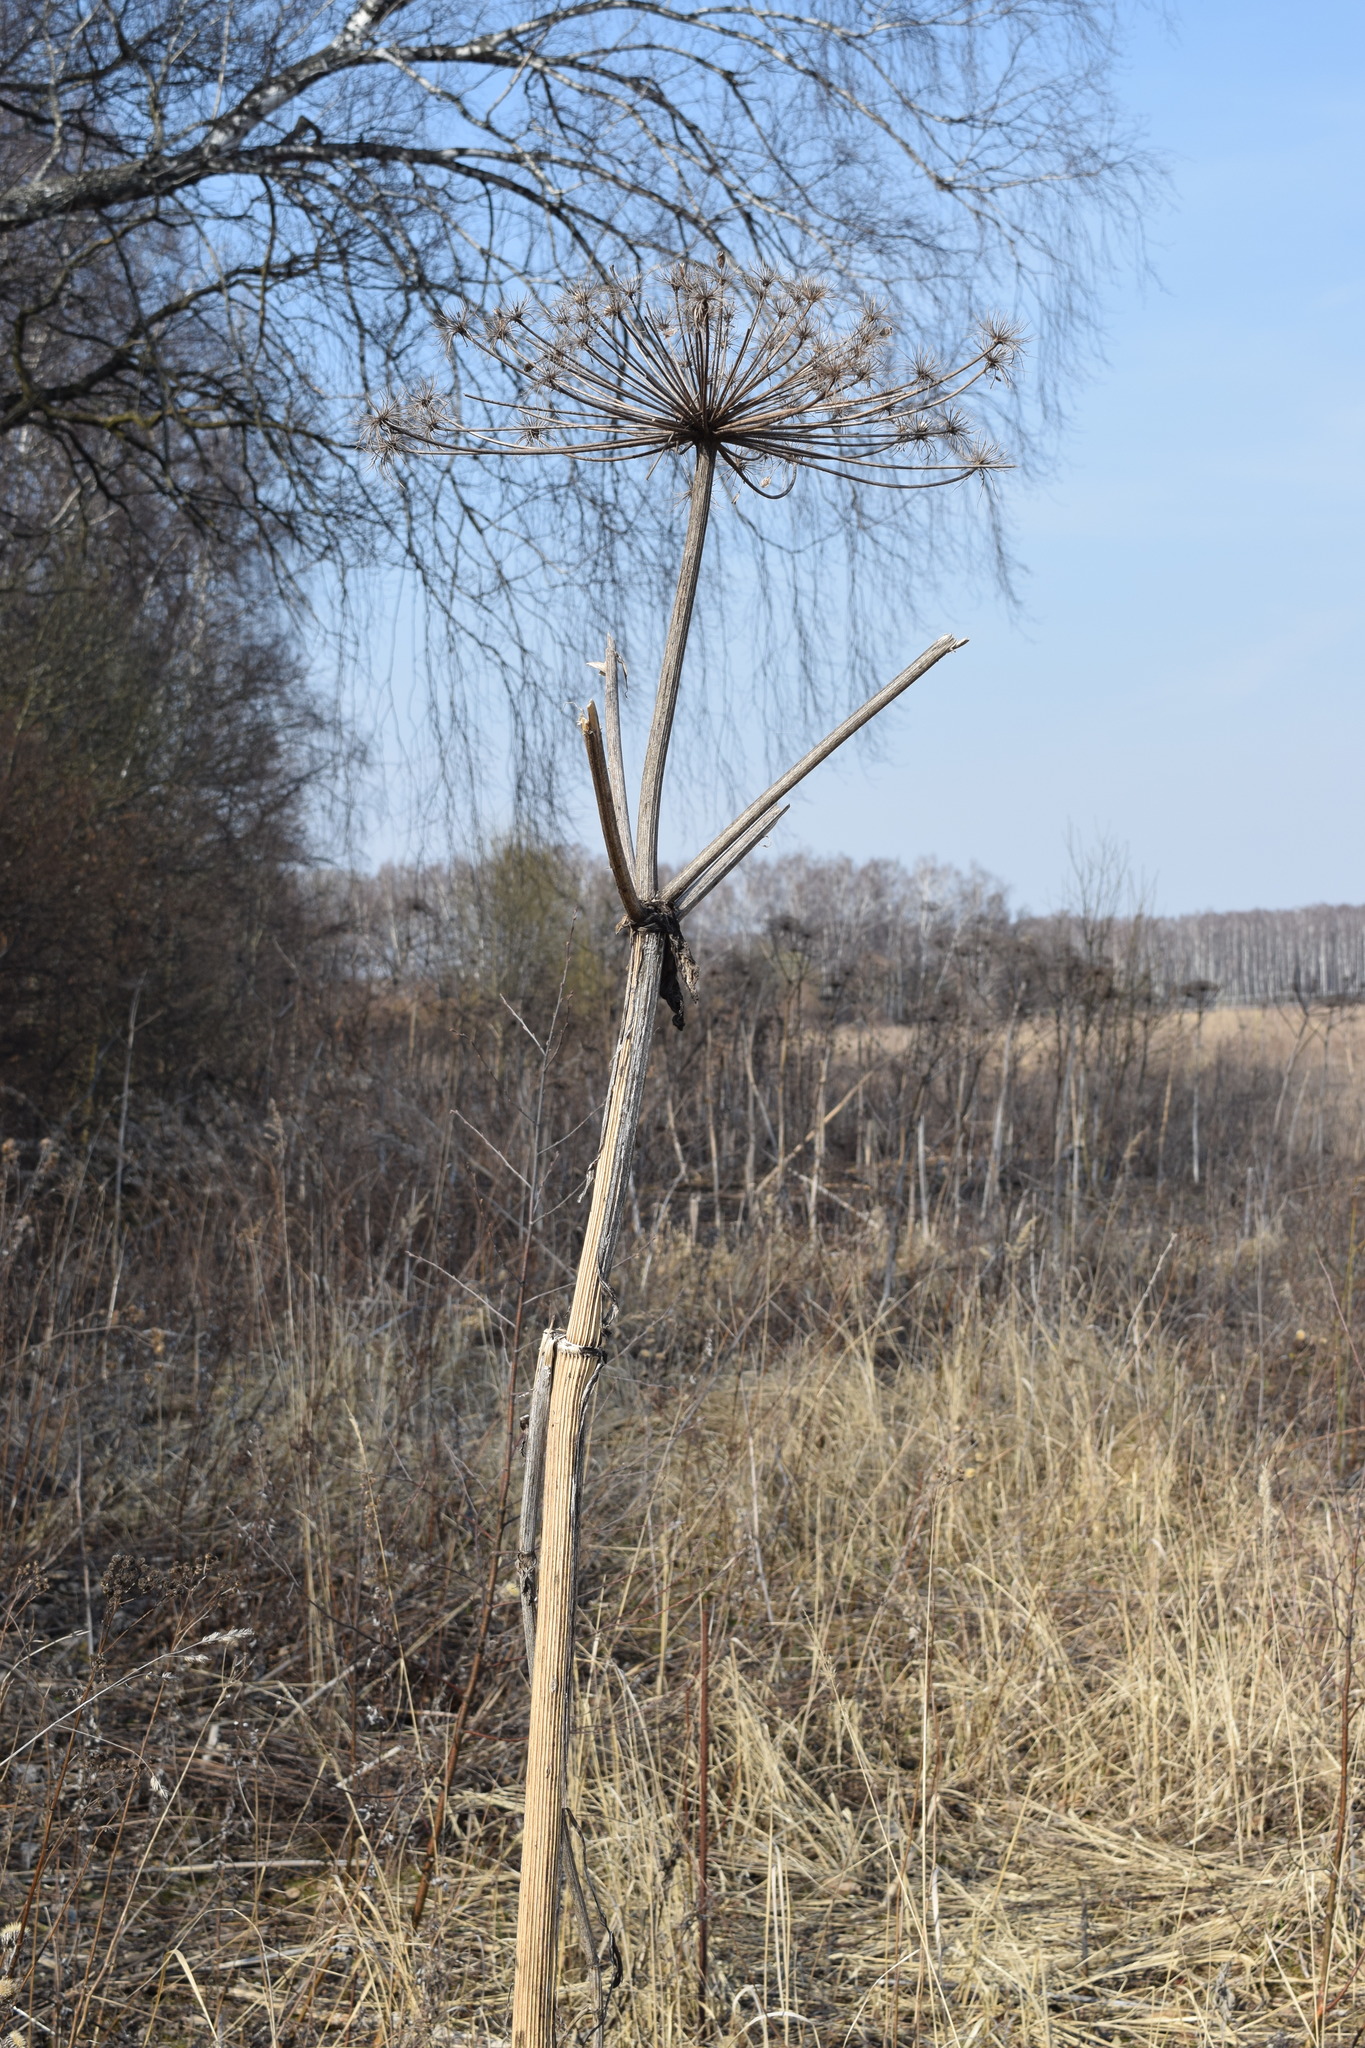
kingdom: Plantae
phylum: Tracheophyta
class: Magnoliopsida
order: Apiales
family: Apiaceae
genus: Heracleum
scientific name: Heracleum sosnowskyi
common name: Sosnowsky's hogweed
